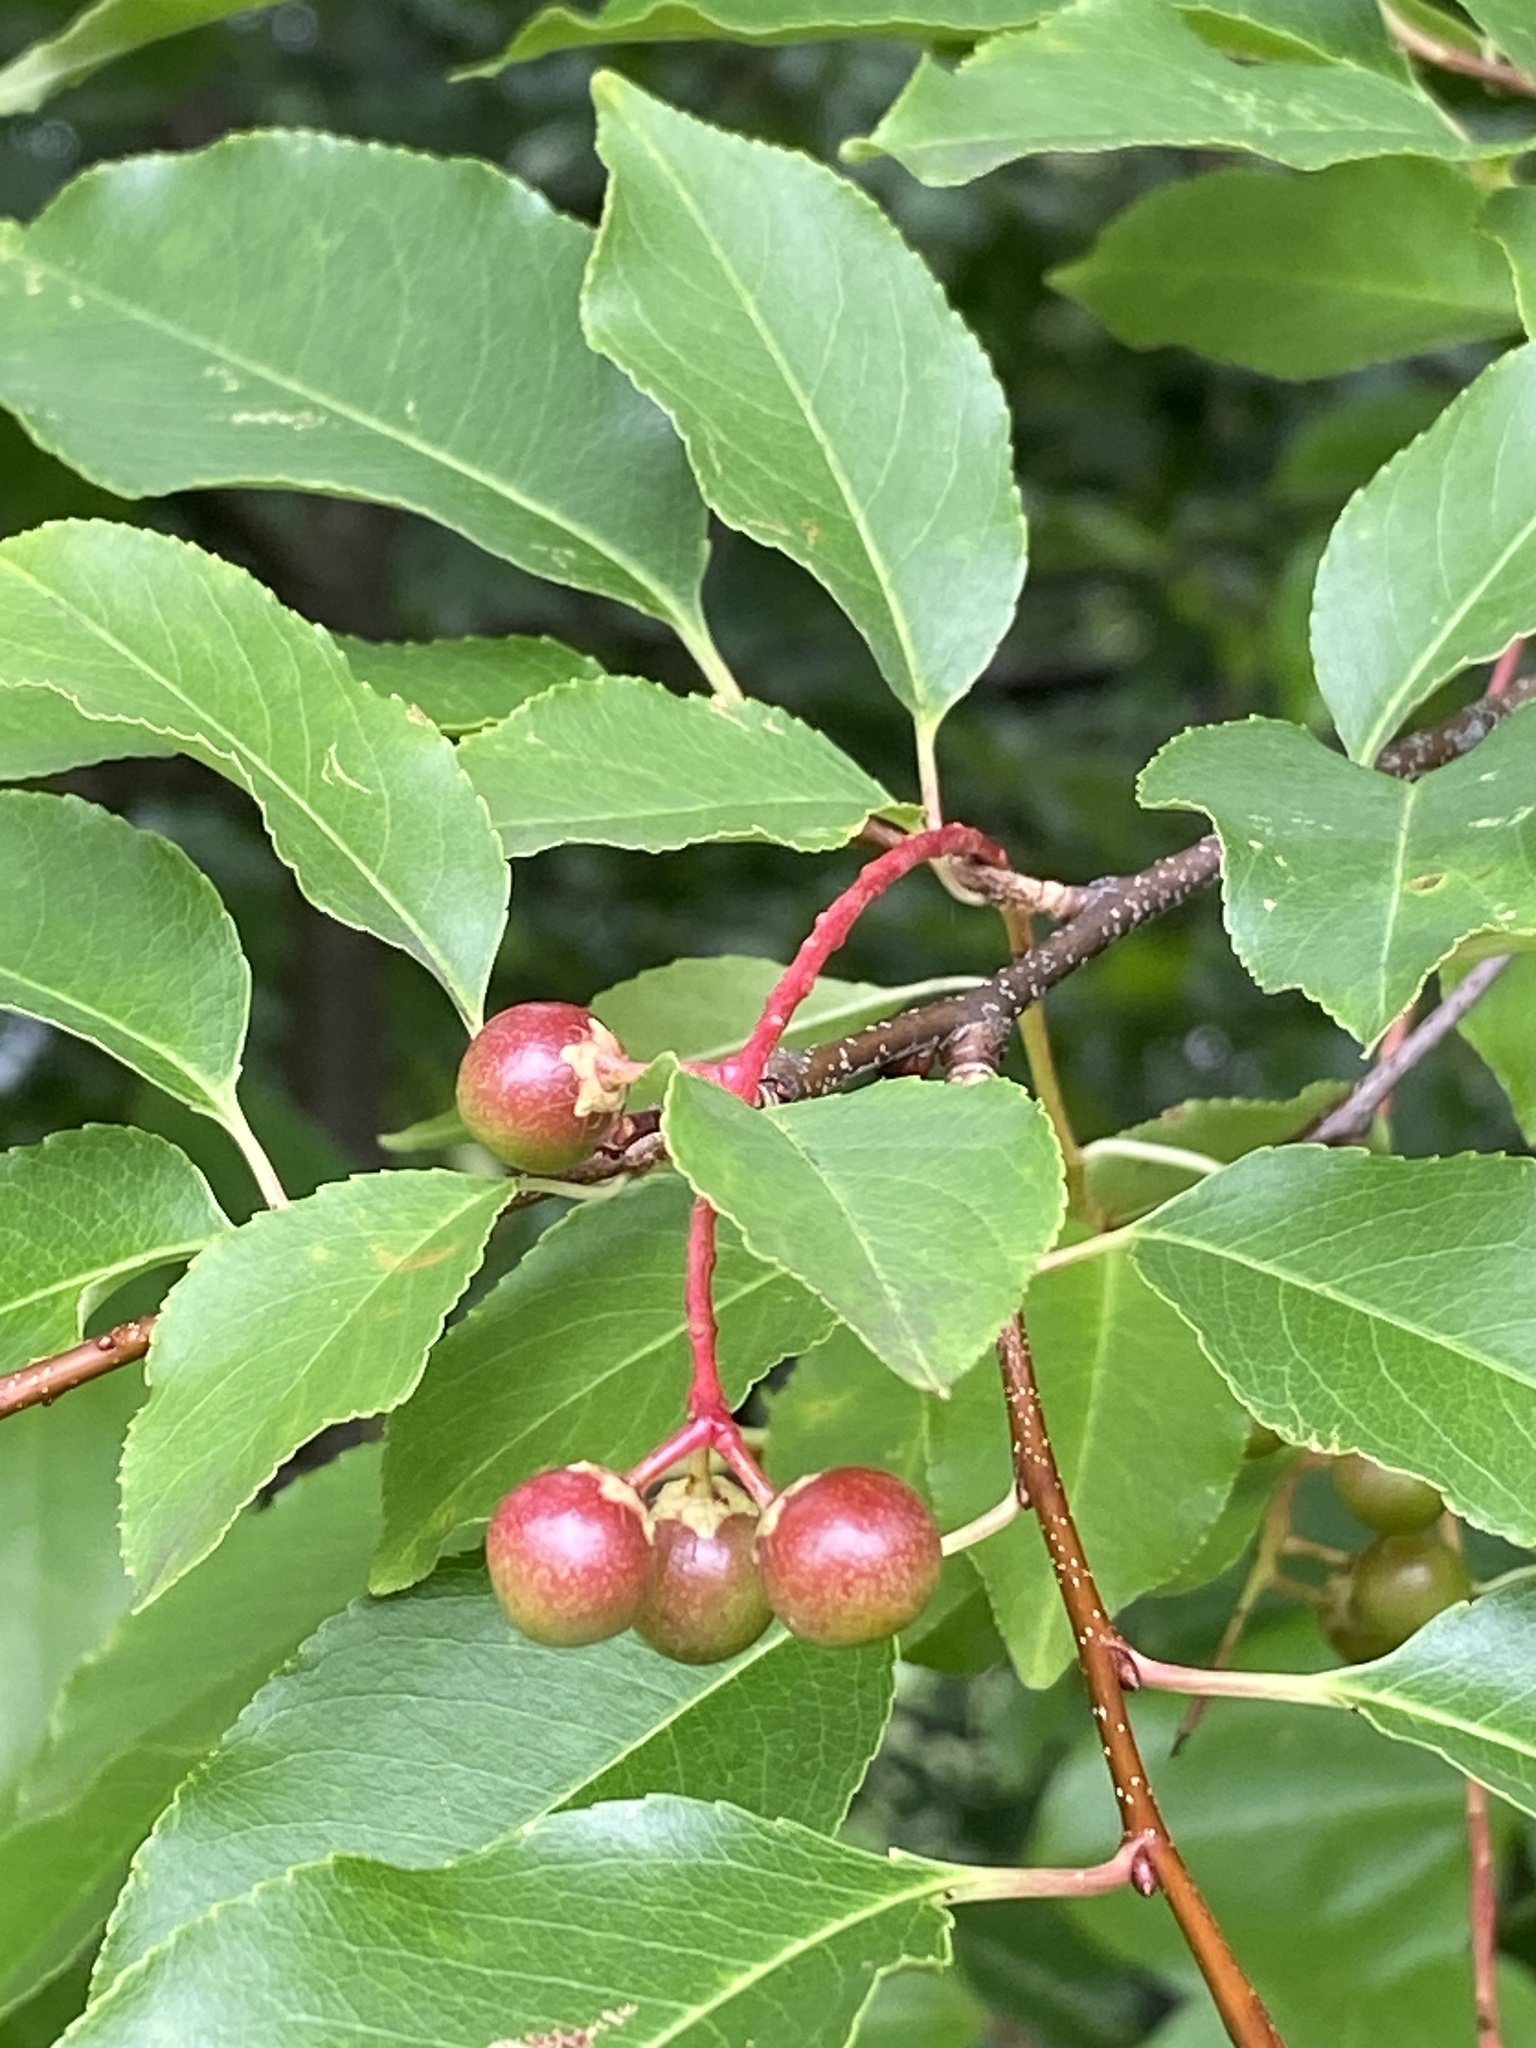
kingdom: Plantae
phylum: Tracheophyta
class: Magnoliopsida
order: Rosales
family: Rosaceae
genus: Prunus
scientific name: Prunus serotina
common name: Black cherry
